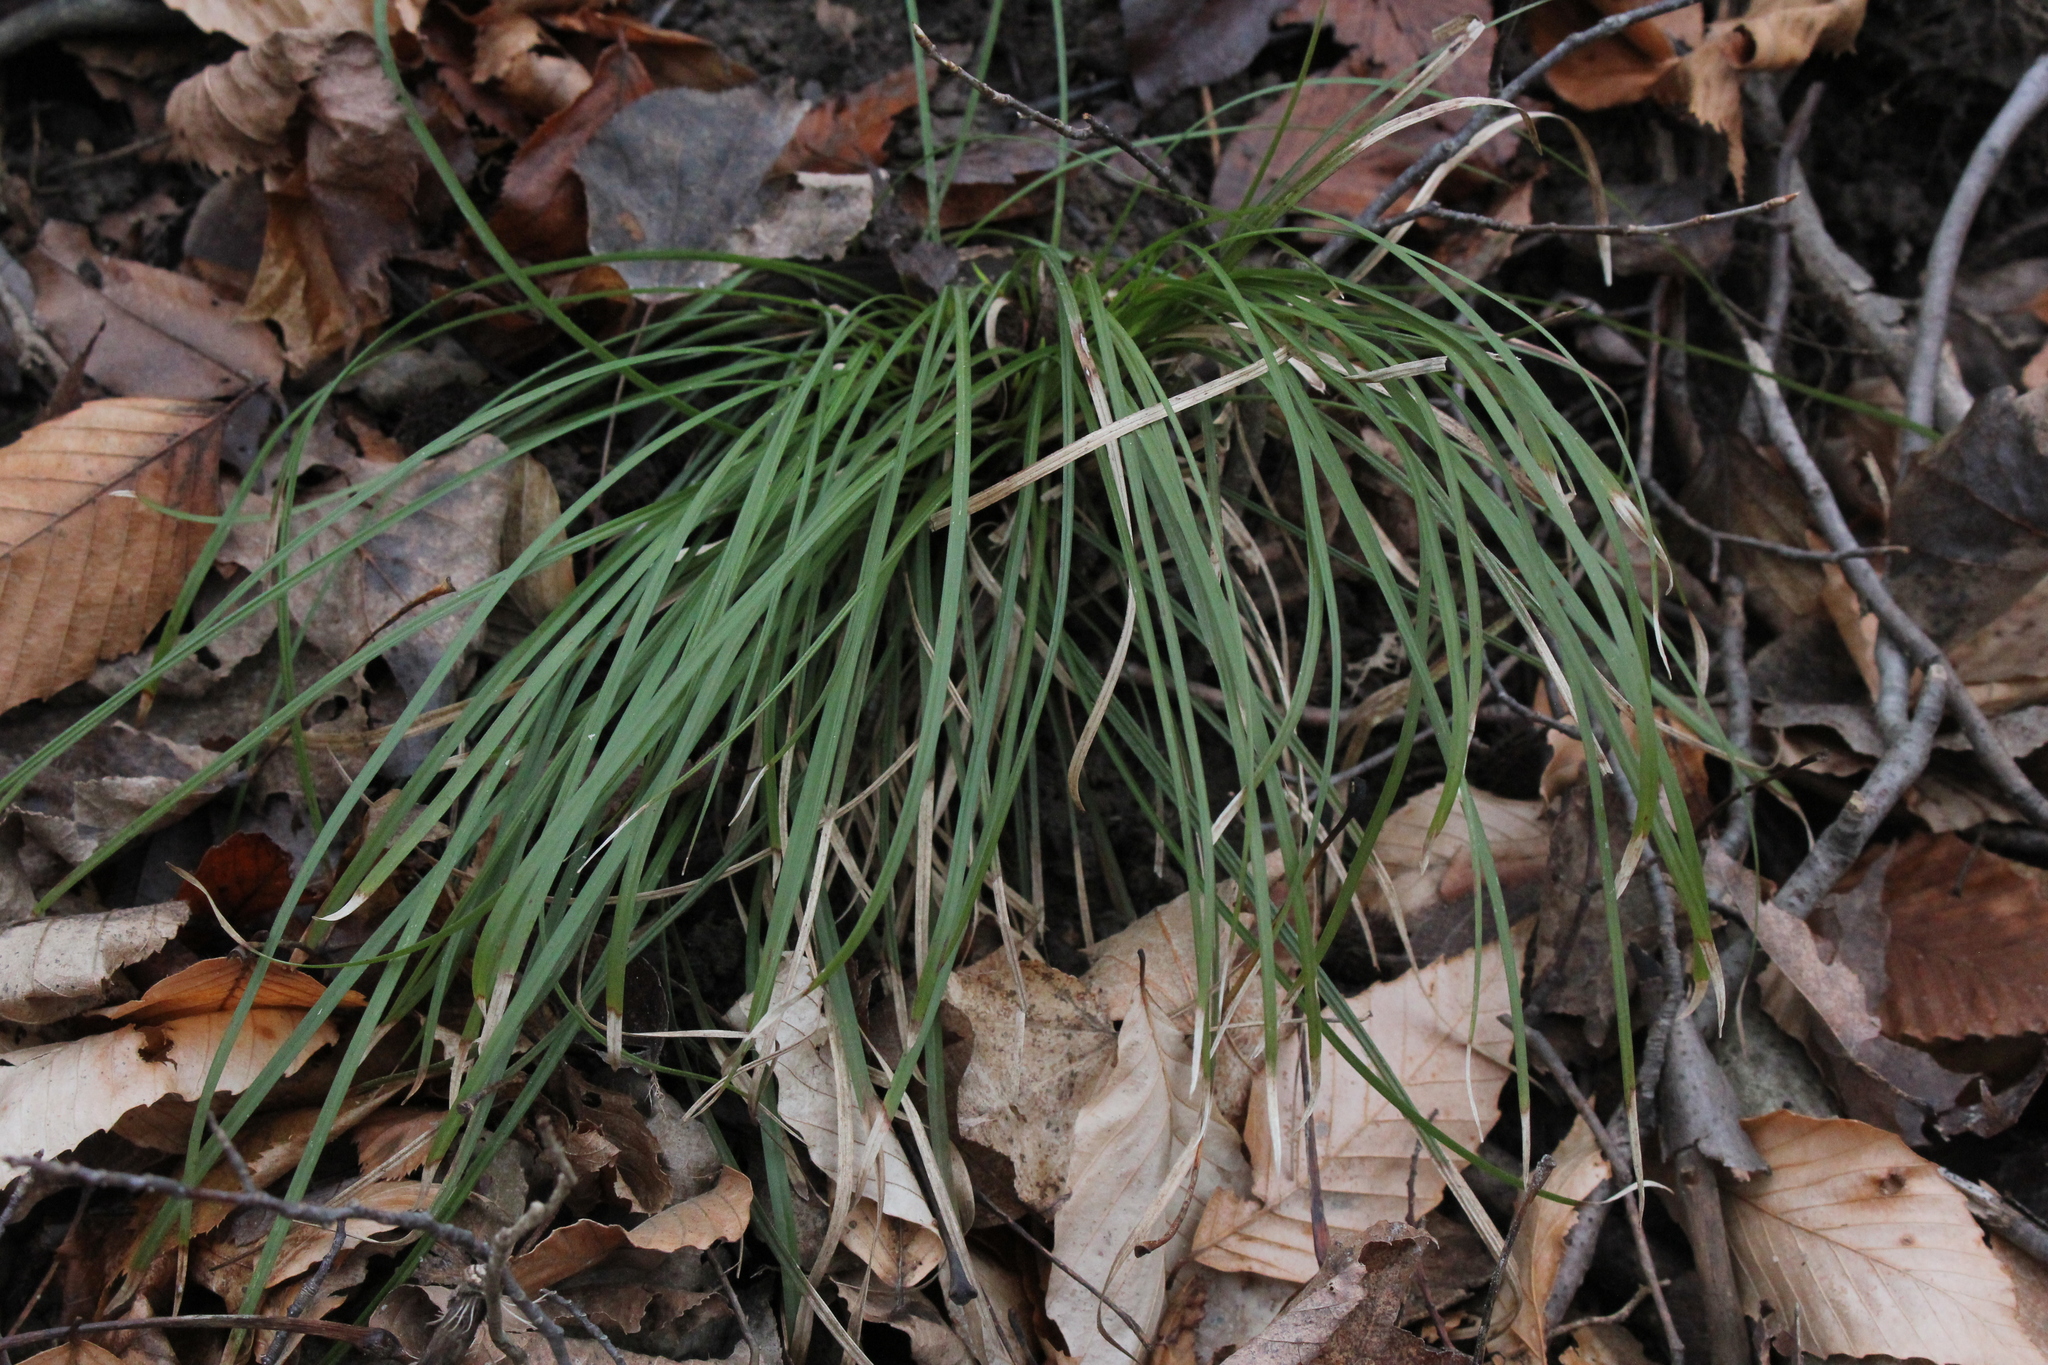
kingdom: Plantae
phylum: Tracheophyta
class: Liliopsida
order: Poales
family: Cyperaceae
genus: Carex
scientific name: Carex pedunculata
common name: Pedunculate sedge
